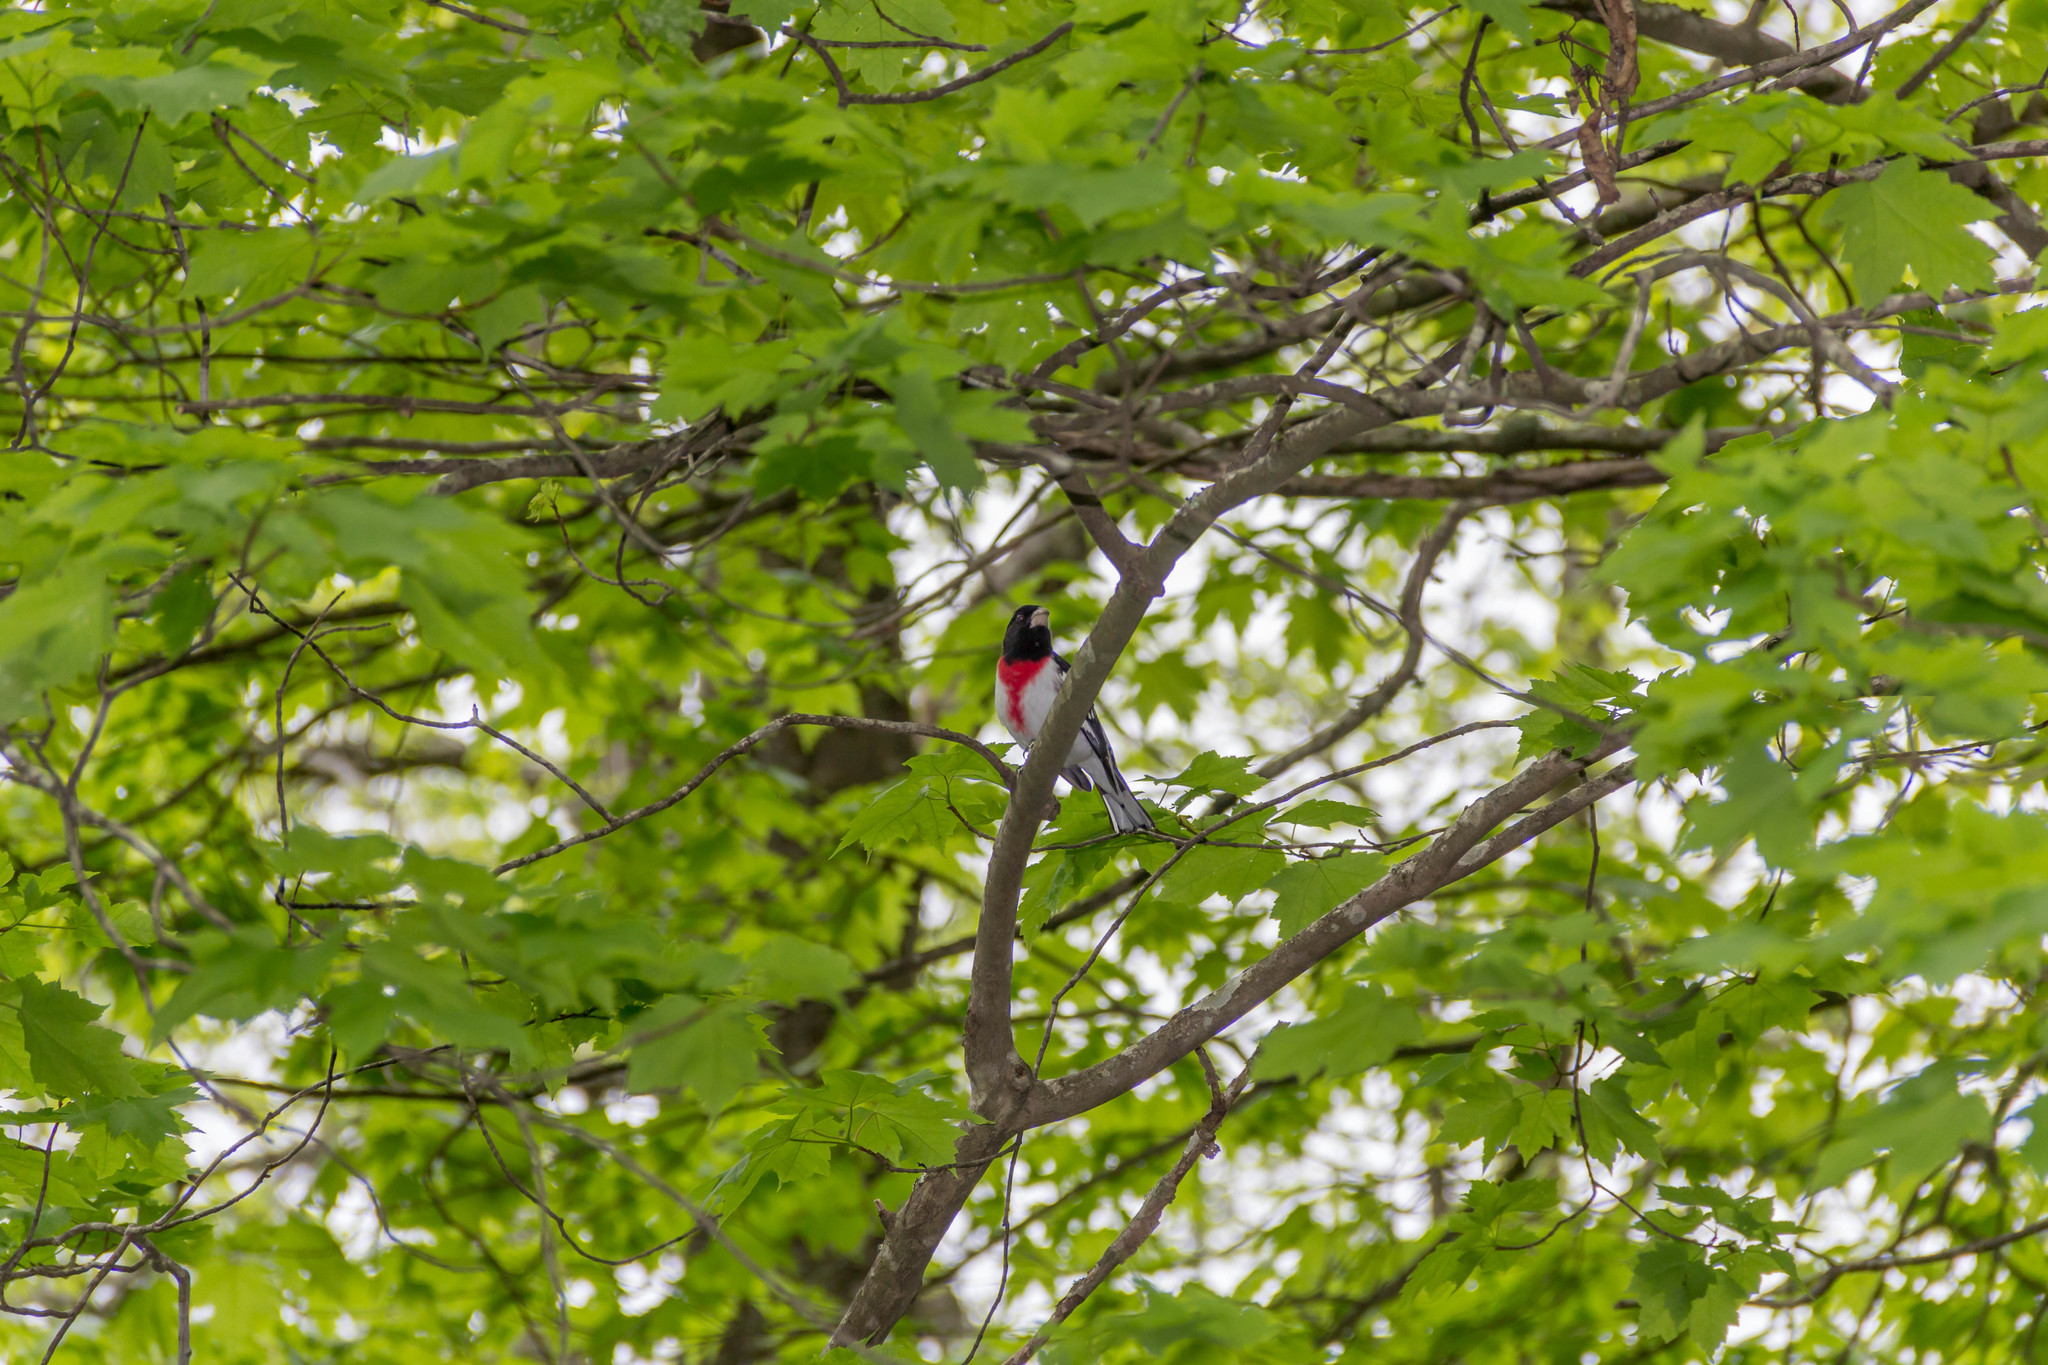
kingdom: Animalia
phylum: Chordata
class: Aves
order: Passeriformes
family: Cardinalidae
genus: Pheucticus
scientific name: Pheucticus ludovicianus
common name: Rose-breasted grosbeak
